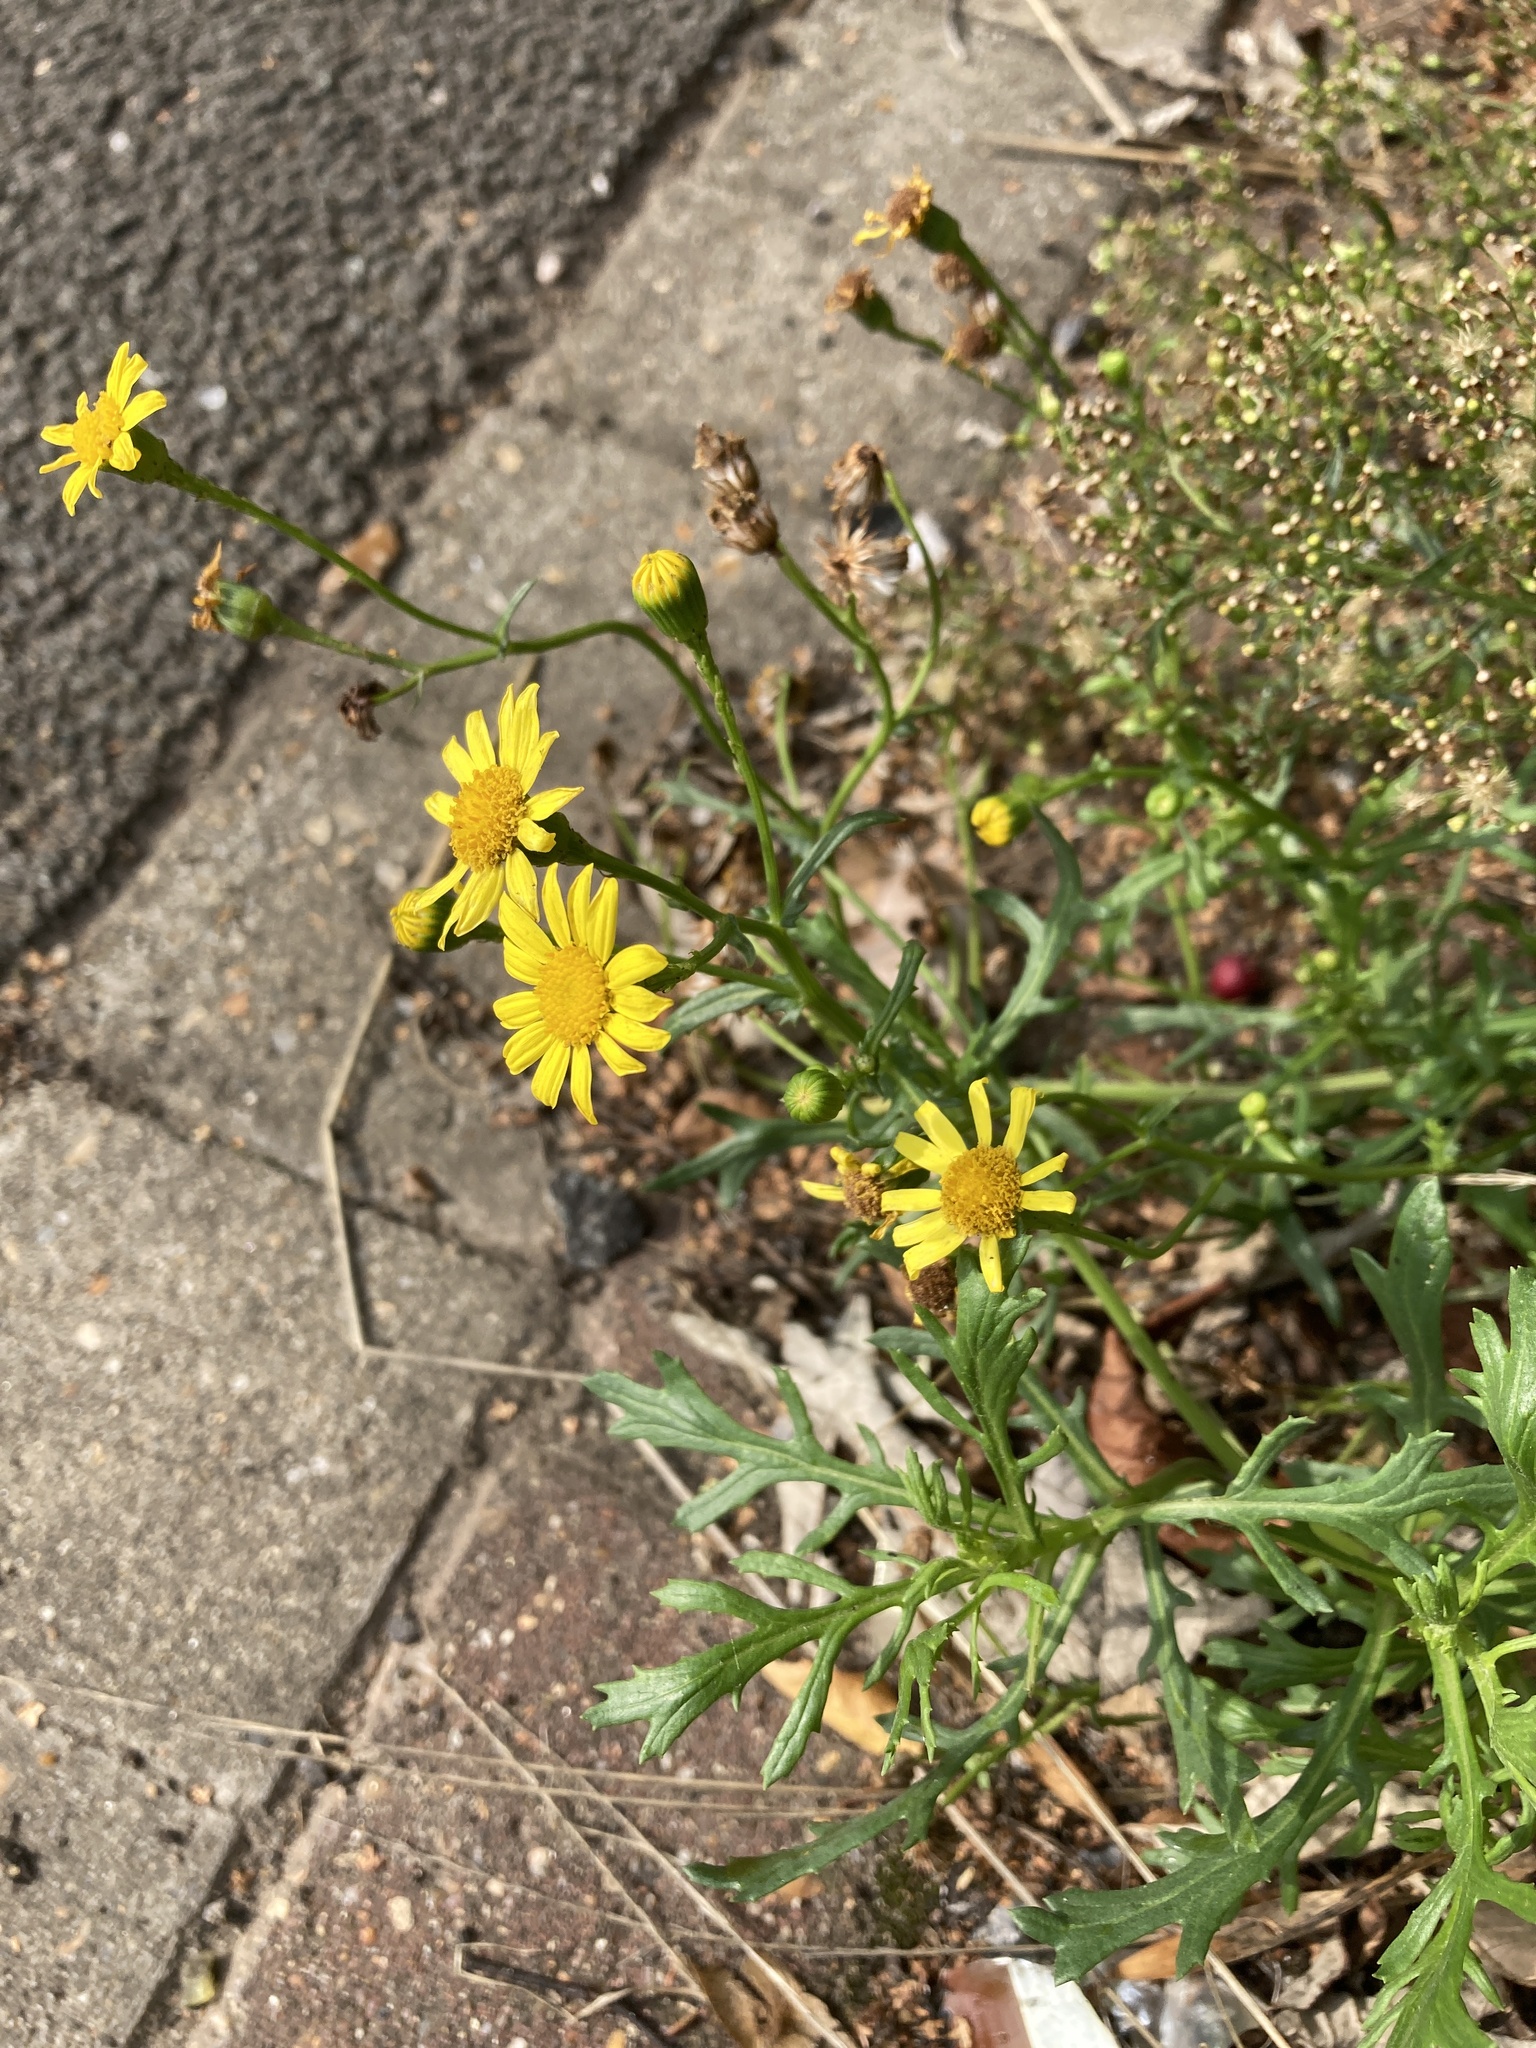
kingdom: Plantae
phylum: Tracheophyta
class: Magnoliopsida
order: Asterales
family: Asteraceae
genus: Senecio
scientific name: Senecio squalidus
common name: Oxford ragwort
